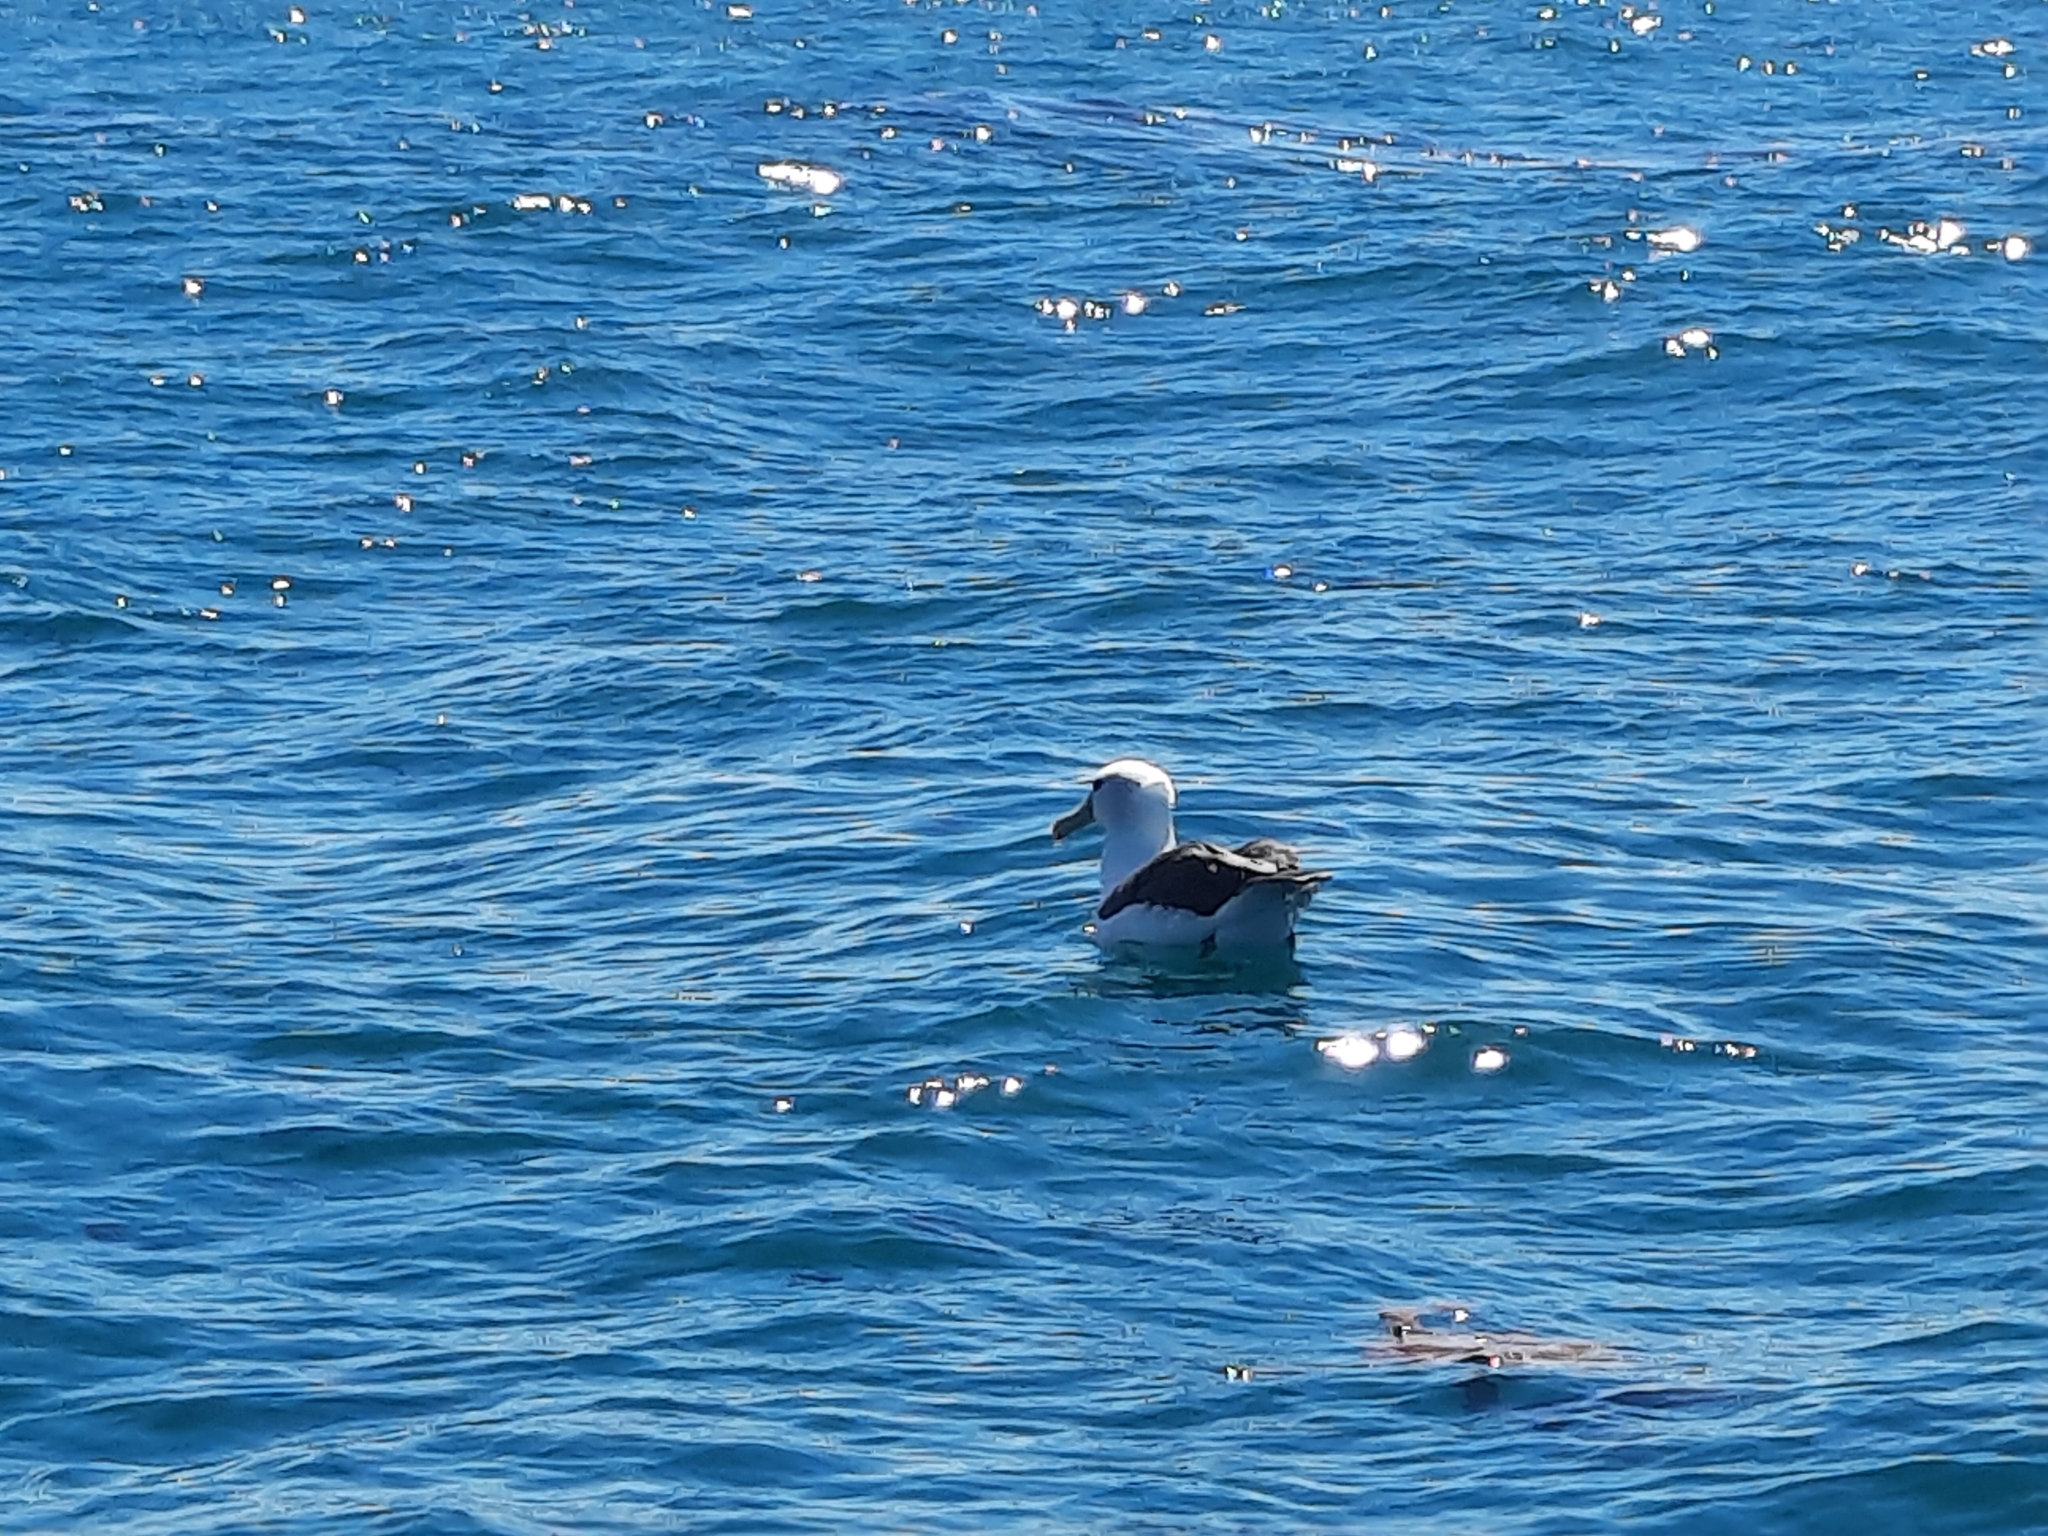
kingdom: Animalia
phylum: Chordata
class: Aves
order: Procellariiformes
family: Diomedeidae
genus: Thalassarche
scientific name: Thalassarche cauta
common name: Shy albatross
